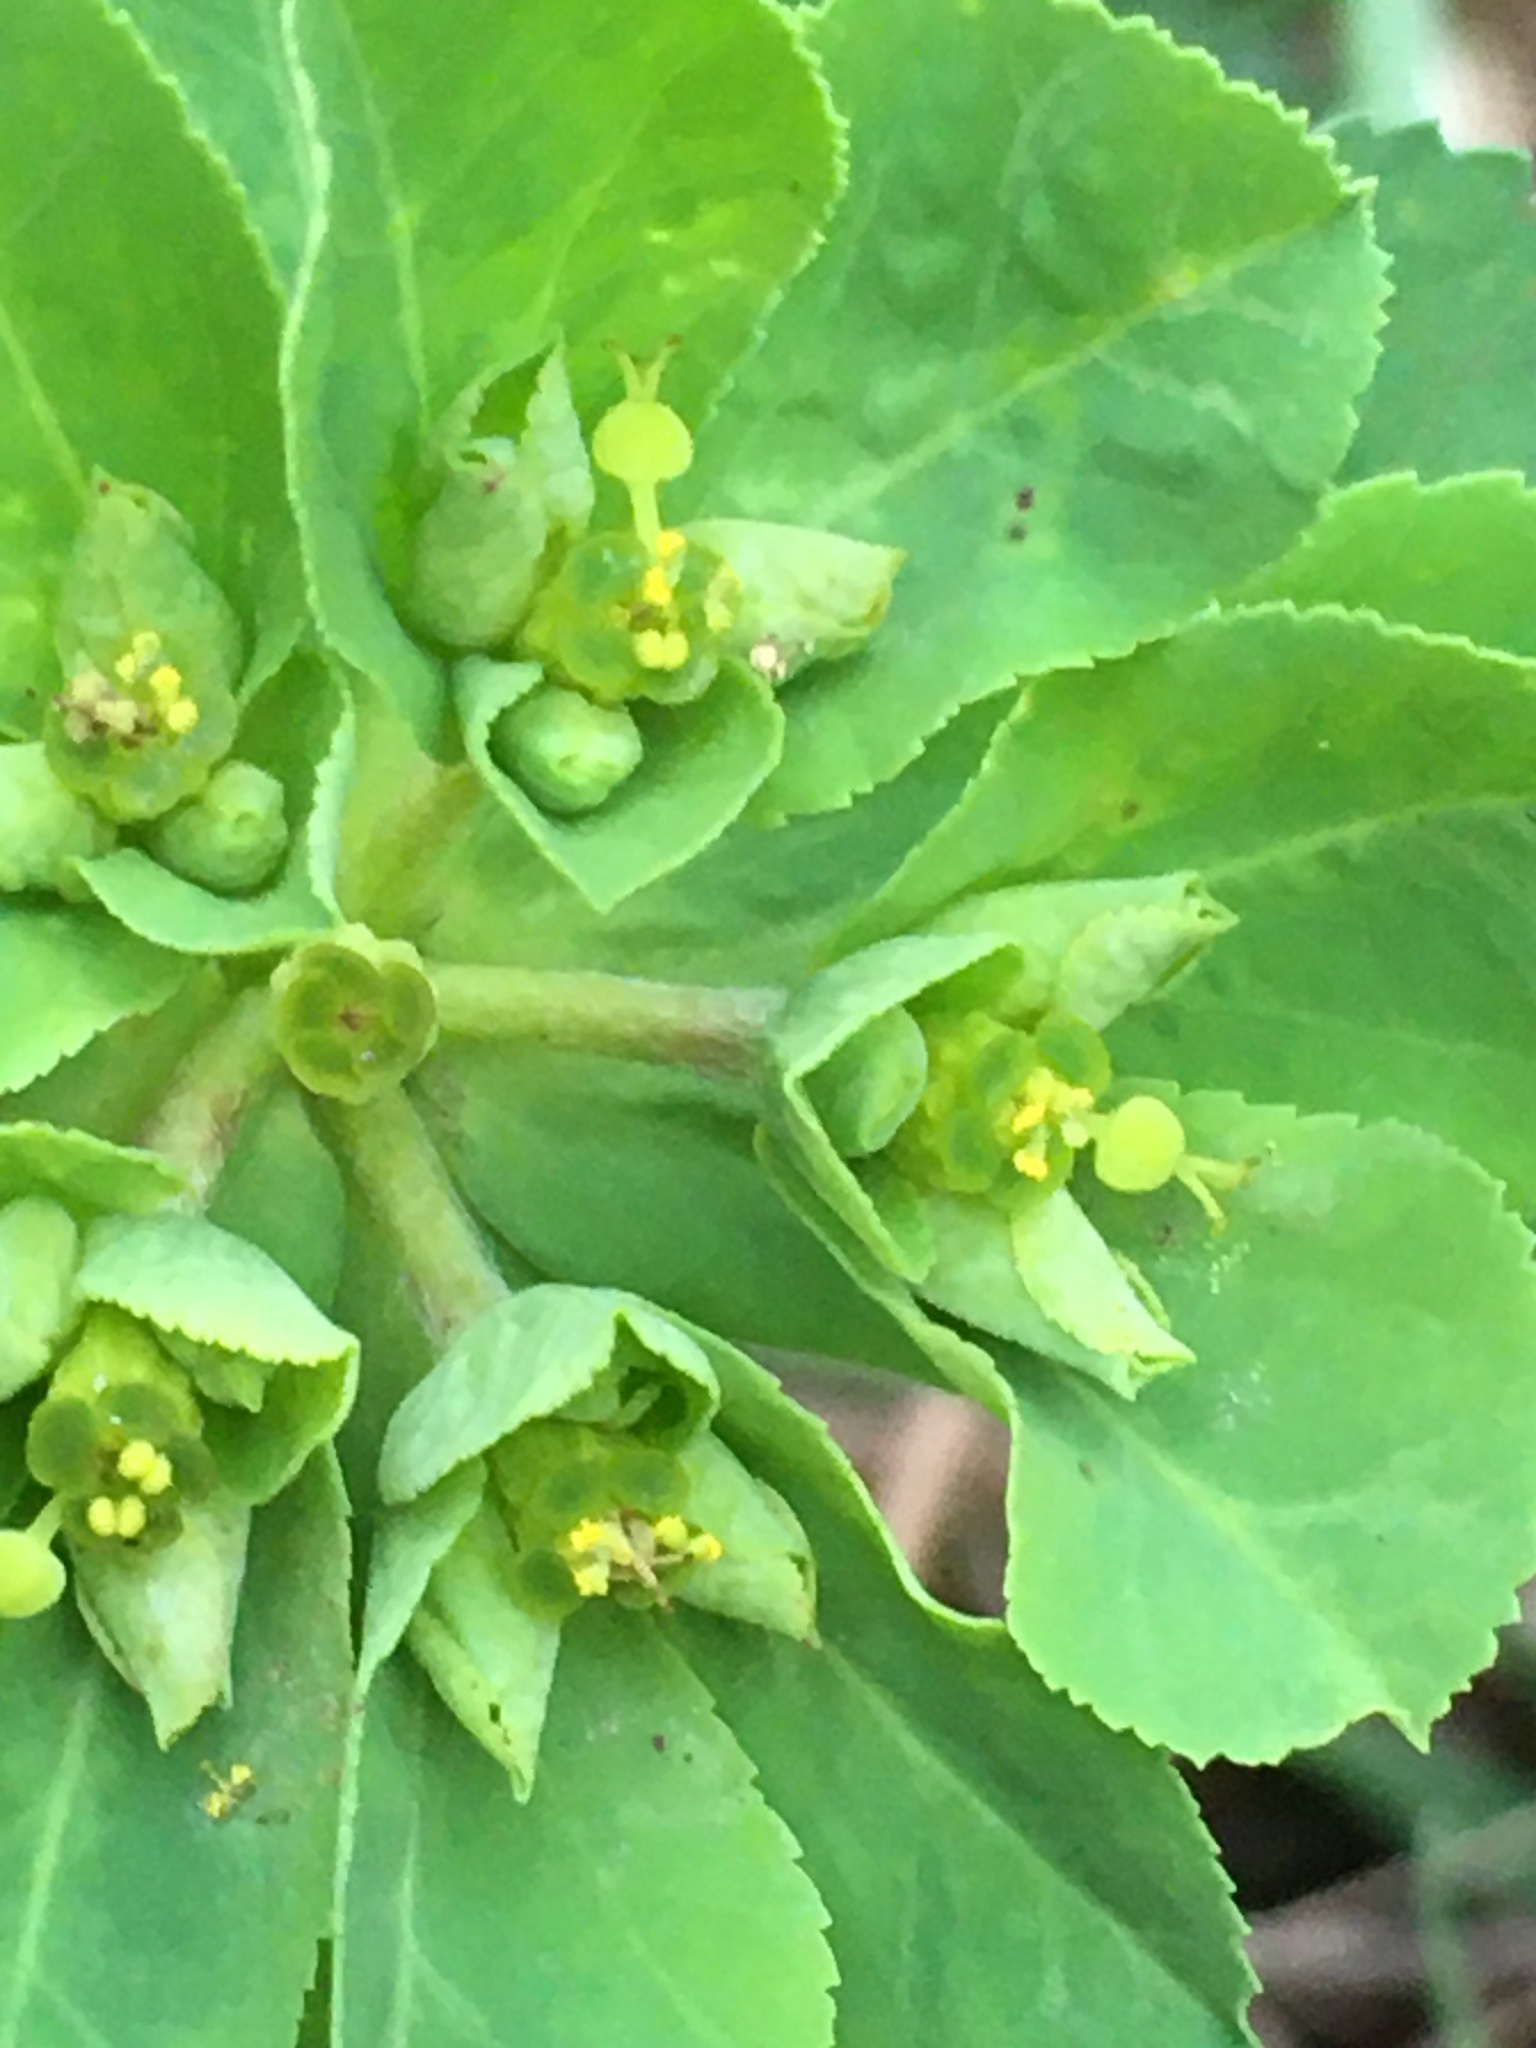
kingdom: Plantae
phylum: Tracheophyta
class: Magnoliopsida
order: Malpighiales
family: Euphorbiaceae
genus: Euphorbia
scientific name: Euphorbia helioscopia
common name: Sun spurge
